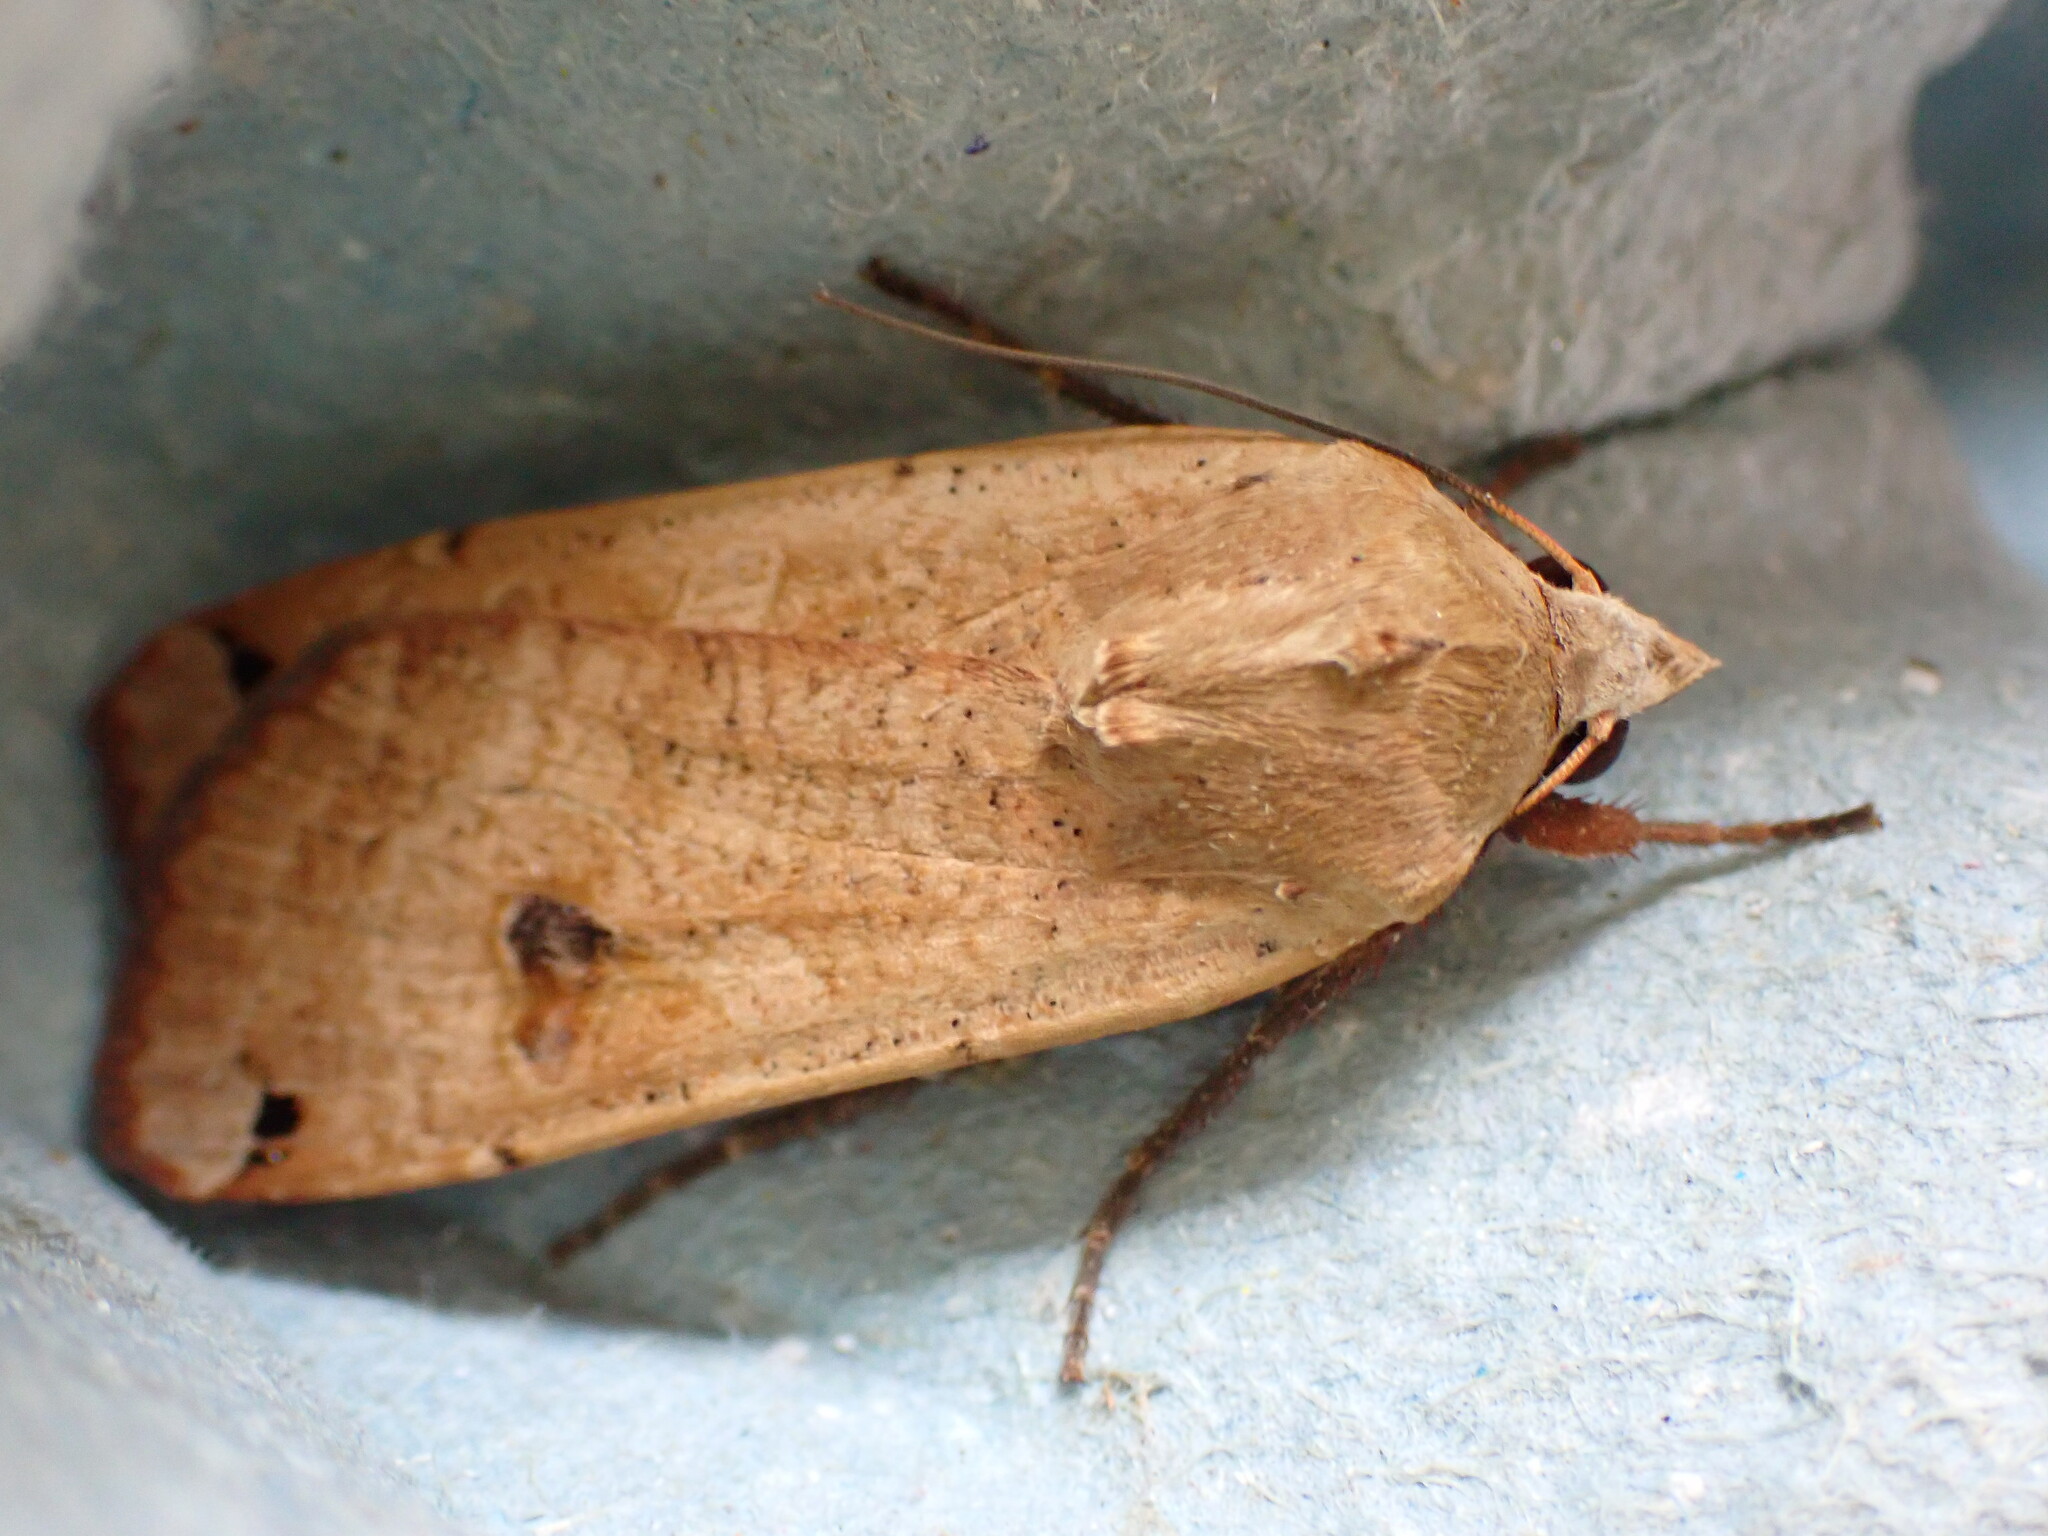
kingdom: Animalia
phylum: Arthropoda
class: Insecta
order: Lepidoptera
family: Noctuidae
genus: Noctua
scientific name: Noctua pronuba
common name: Large yellow underwing
